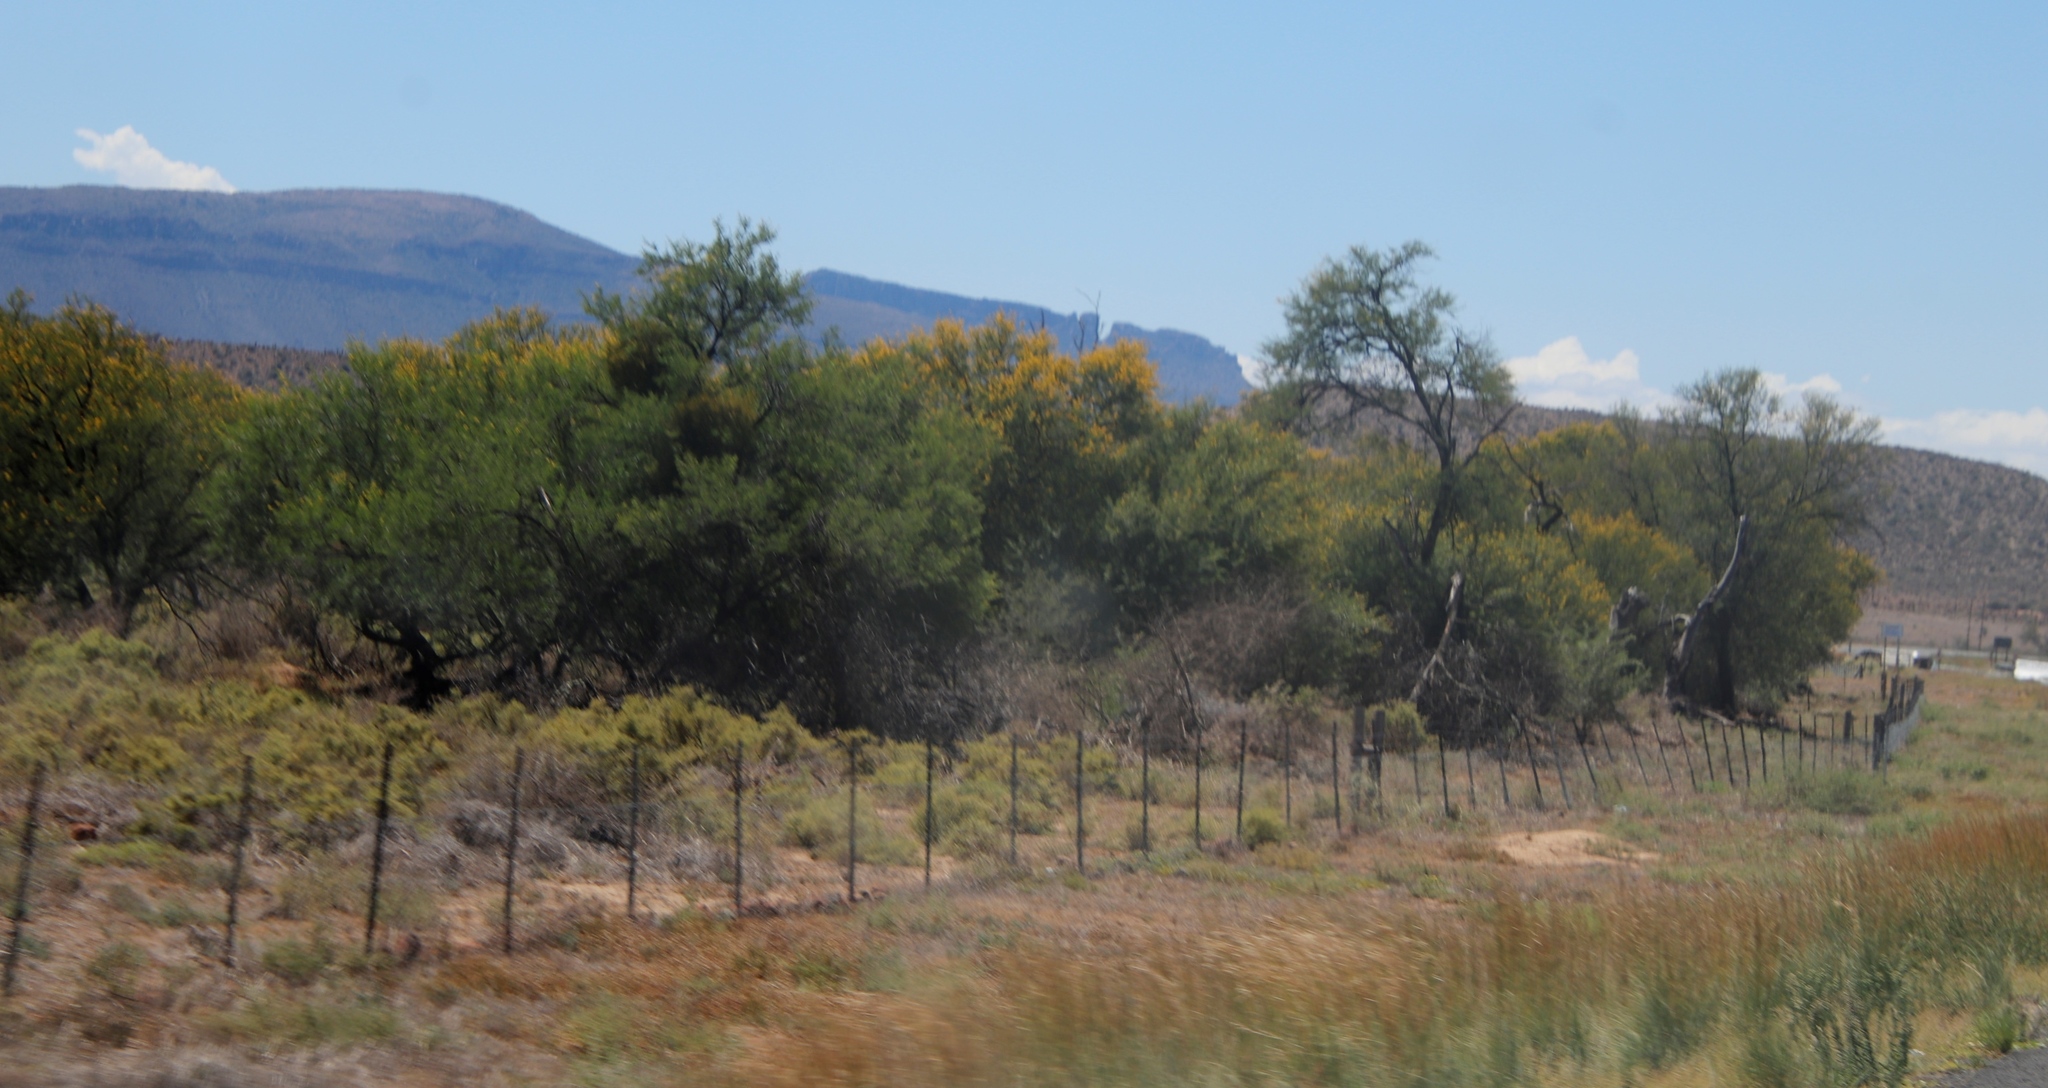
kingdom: Plantae
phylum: Tracheophyta
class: Magnoliopsida
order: Fabales
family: Fabaceae
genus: Vachellia
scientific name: Vachellia karroo
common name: Sweet thorn
